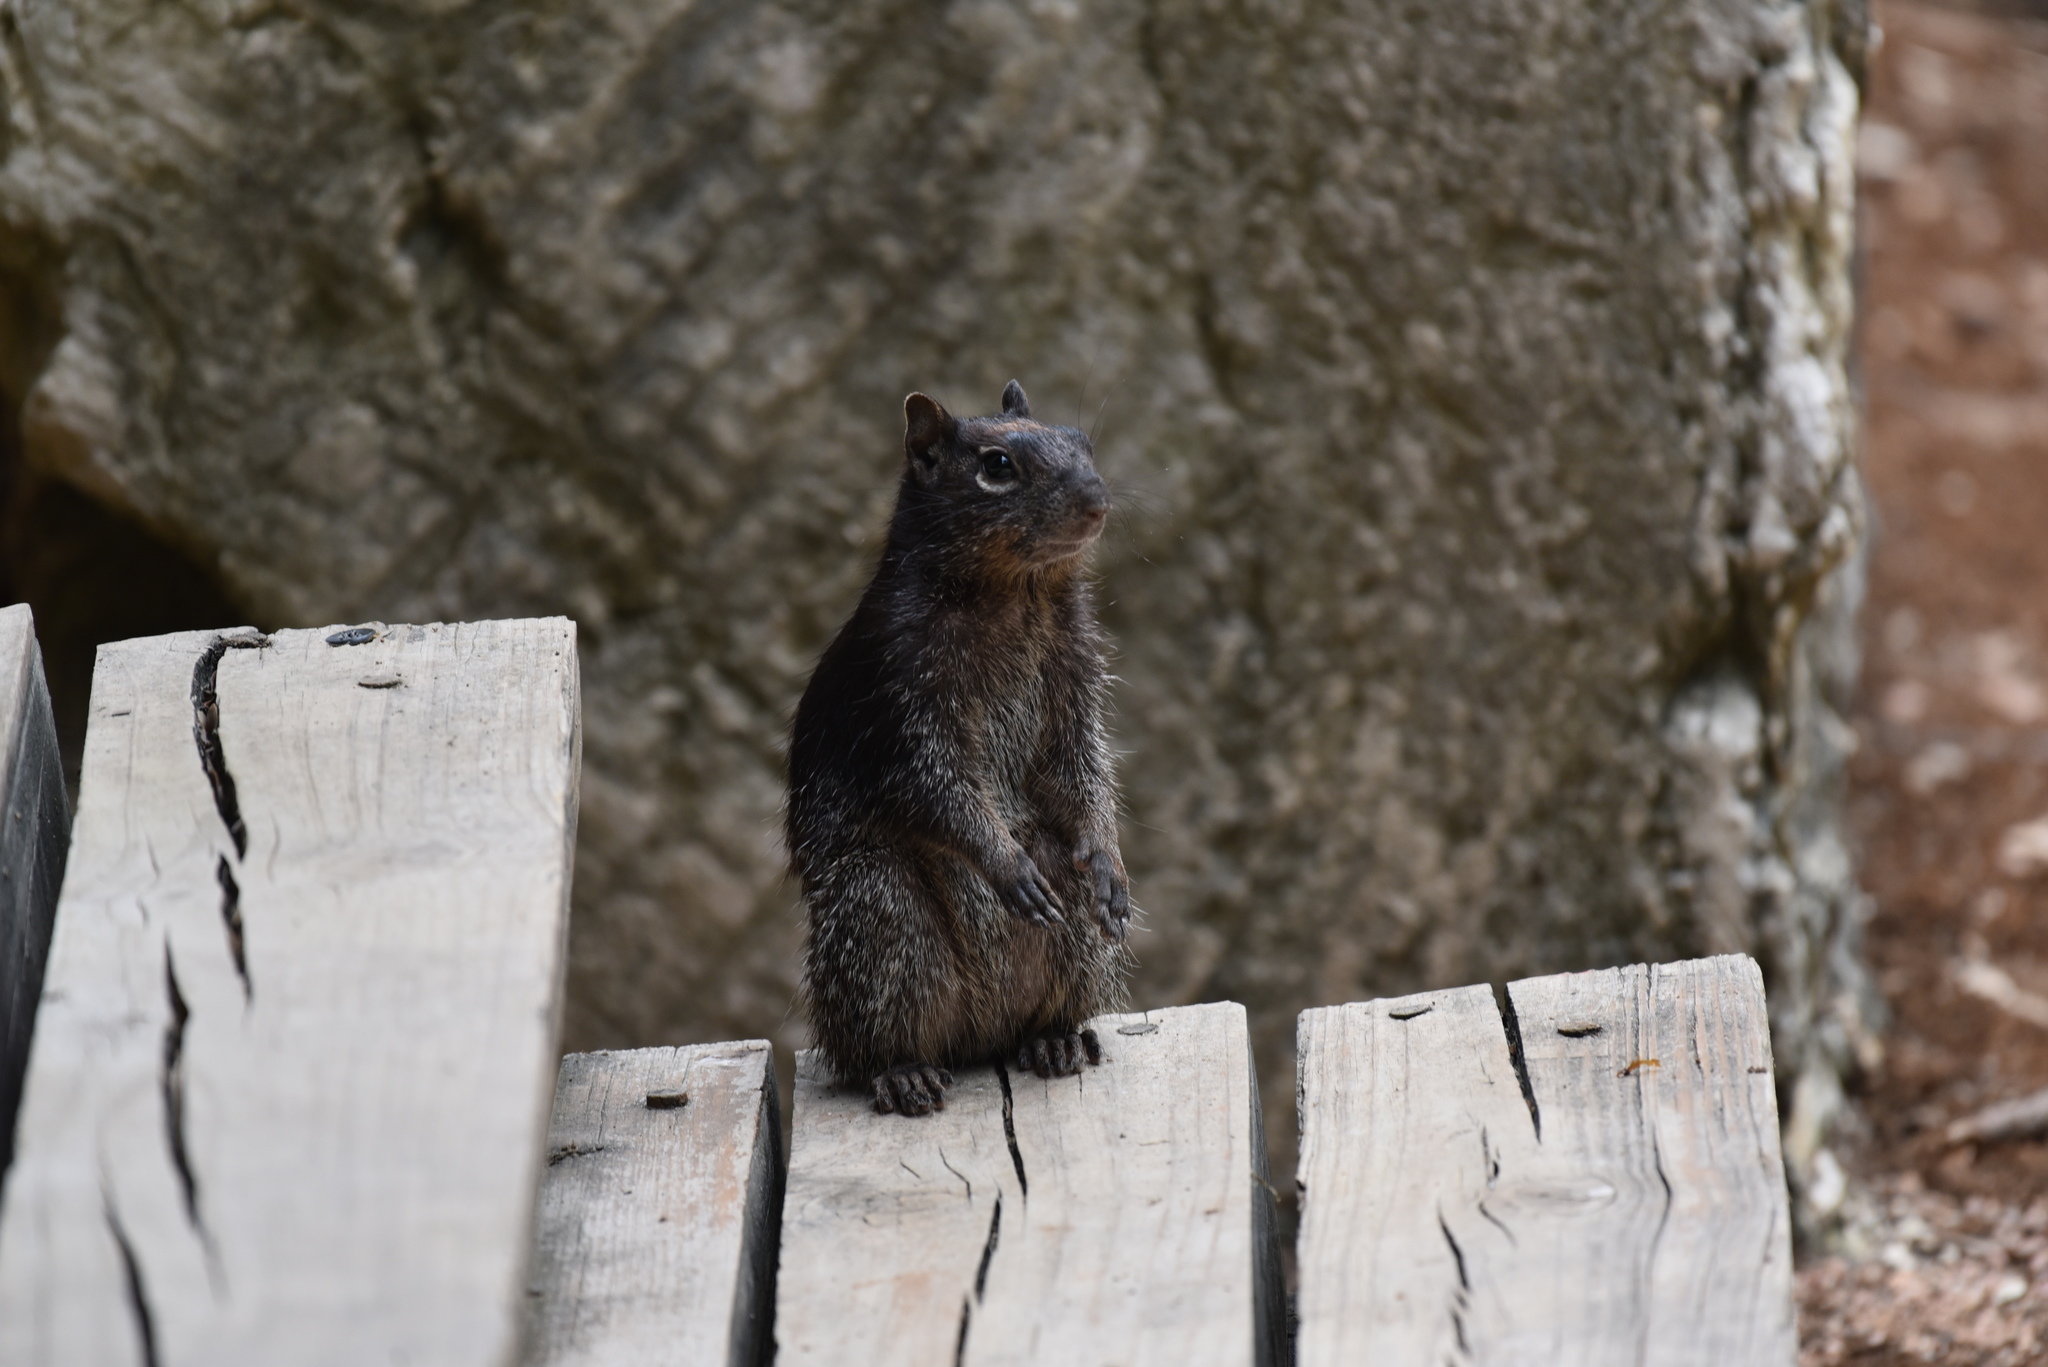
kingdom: Animalia
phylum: Chordata
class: Mammalia
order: Rodentia
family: Sciuridae
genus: Otospermophilus
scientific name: Otospermophilus variegatus
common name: Rock squirrel
